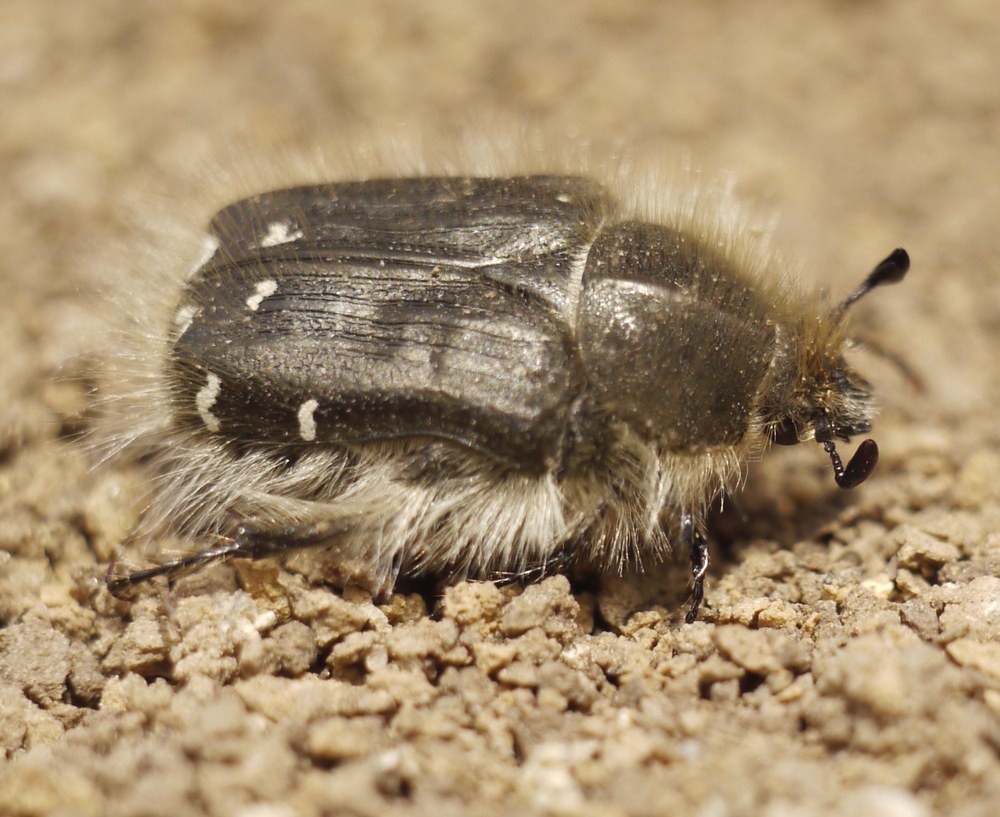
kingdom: Animalia
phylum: Arthropoda
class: Insecta
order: Coleoptera
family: Scarabaeidae
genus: Tropinota
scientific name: Tropinota hirta
